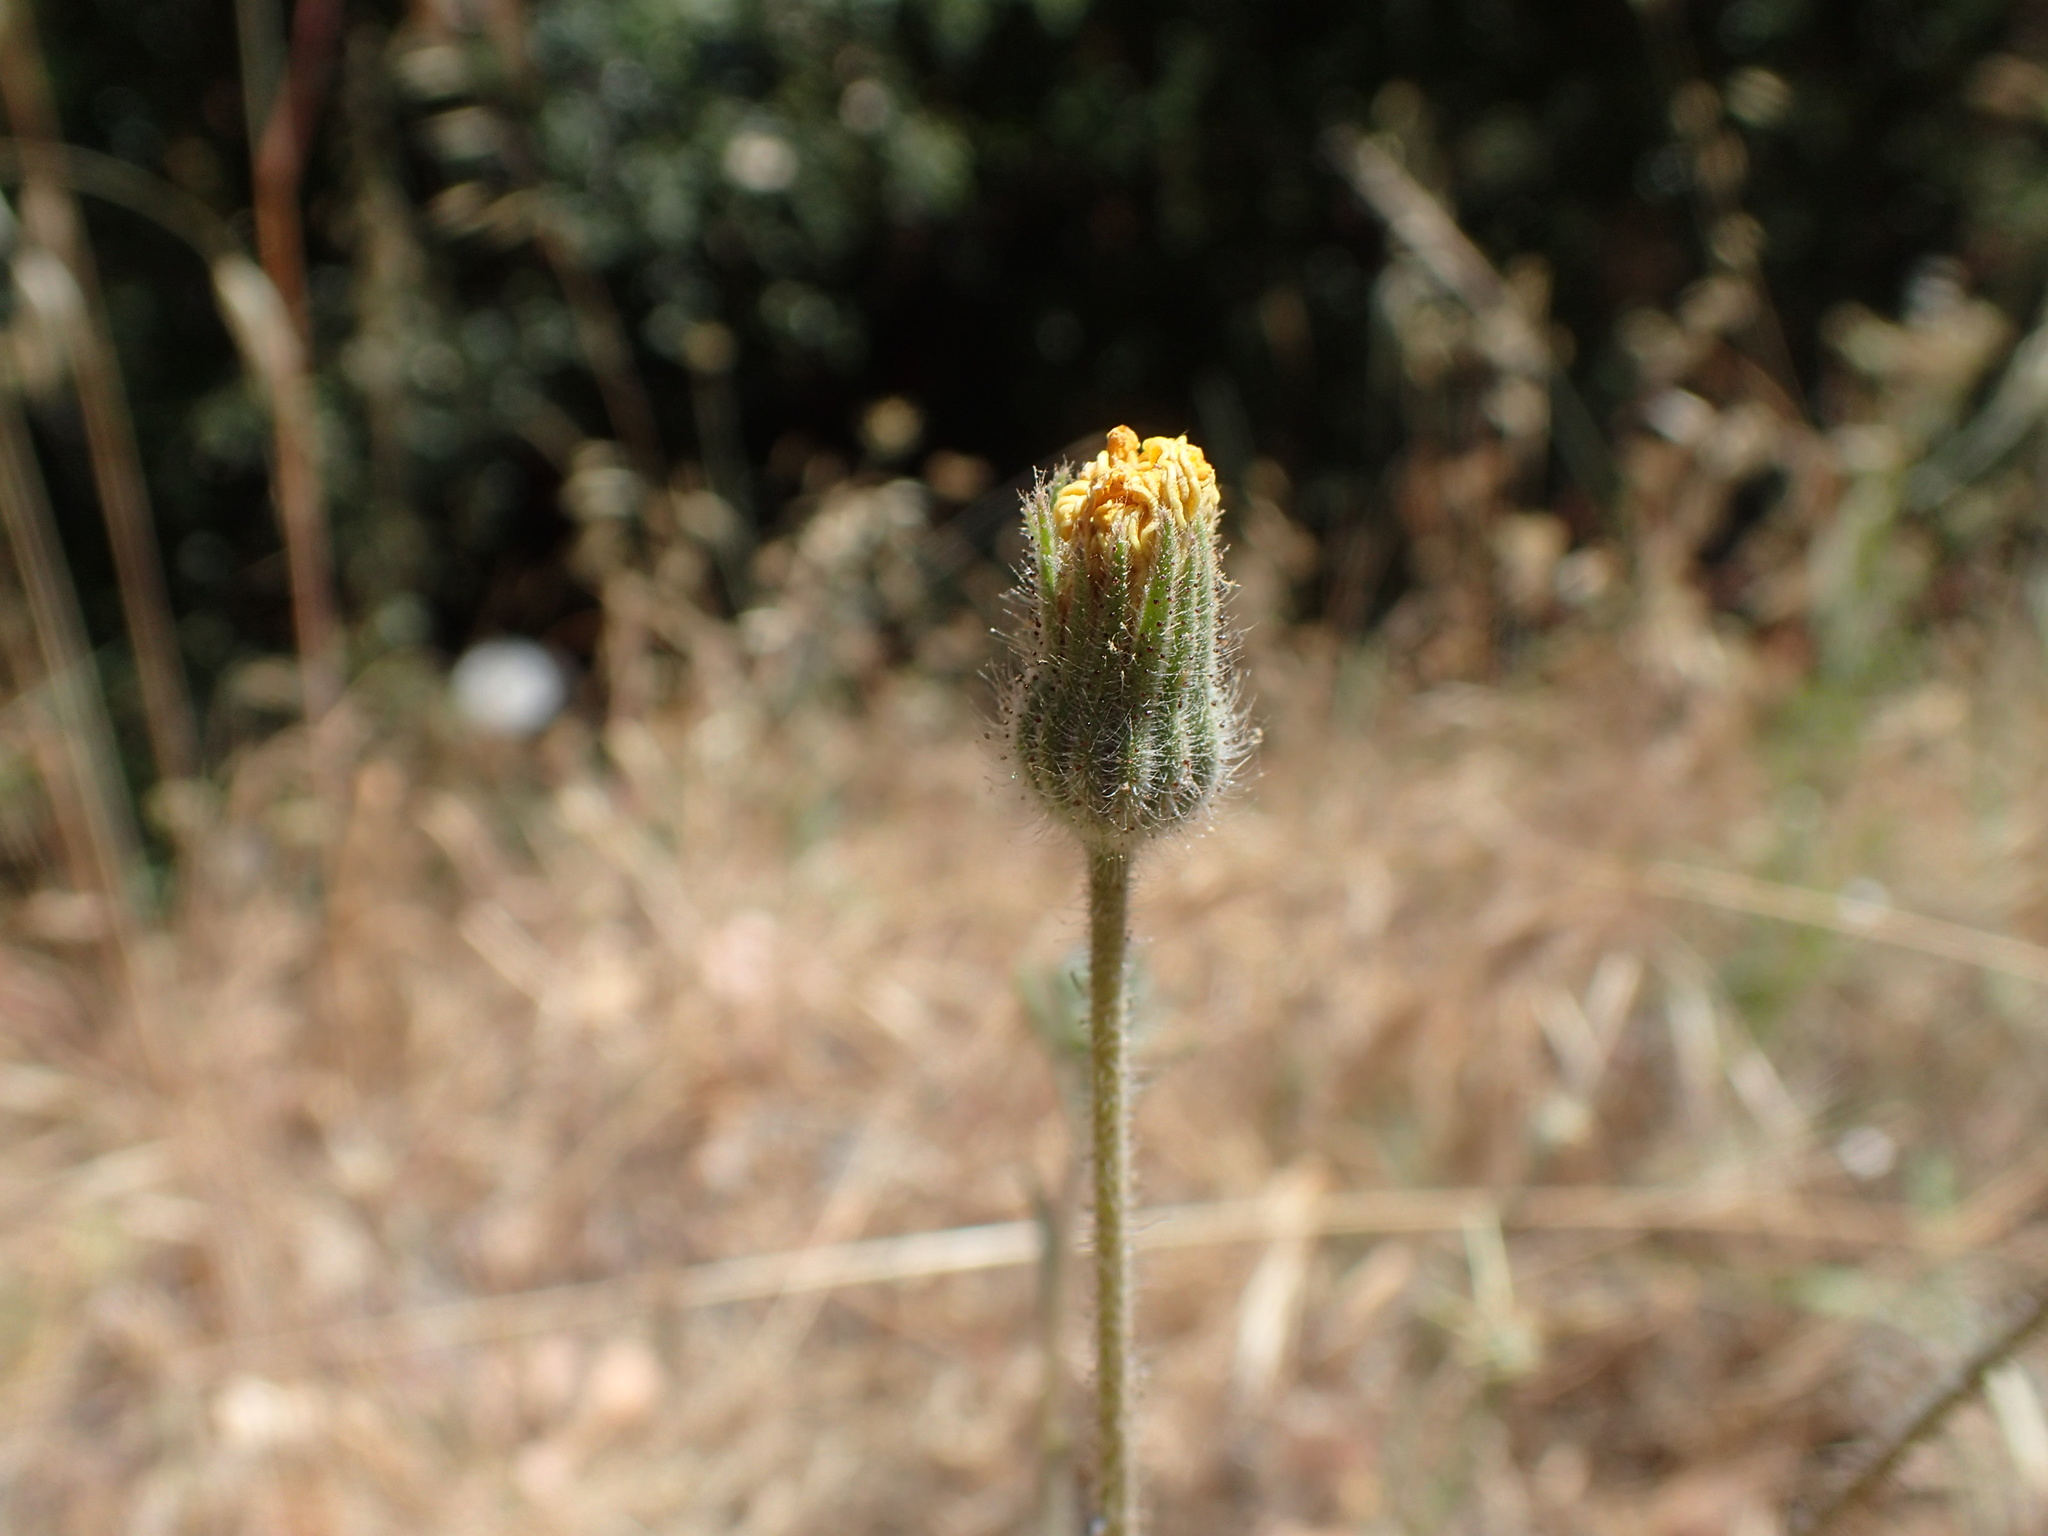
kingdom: Plantae
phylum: Tracheophyta
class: Magnoliopsida
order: Asterales
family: Asteraceae
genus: Madia
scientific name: Madia elegans
